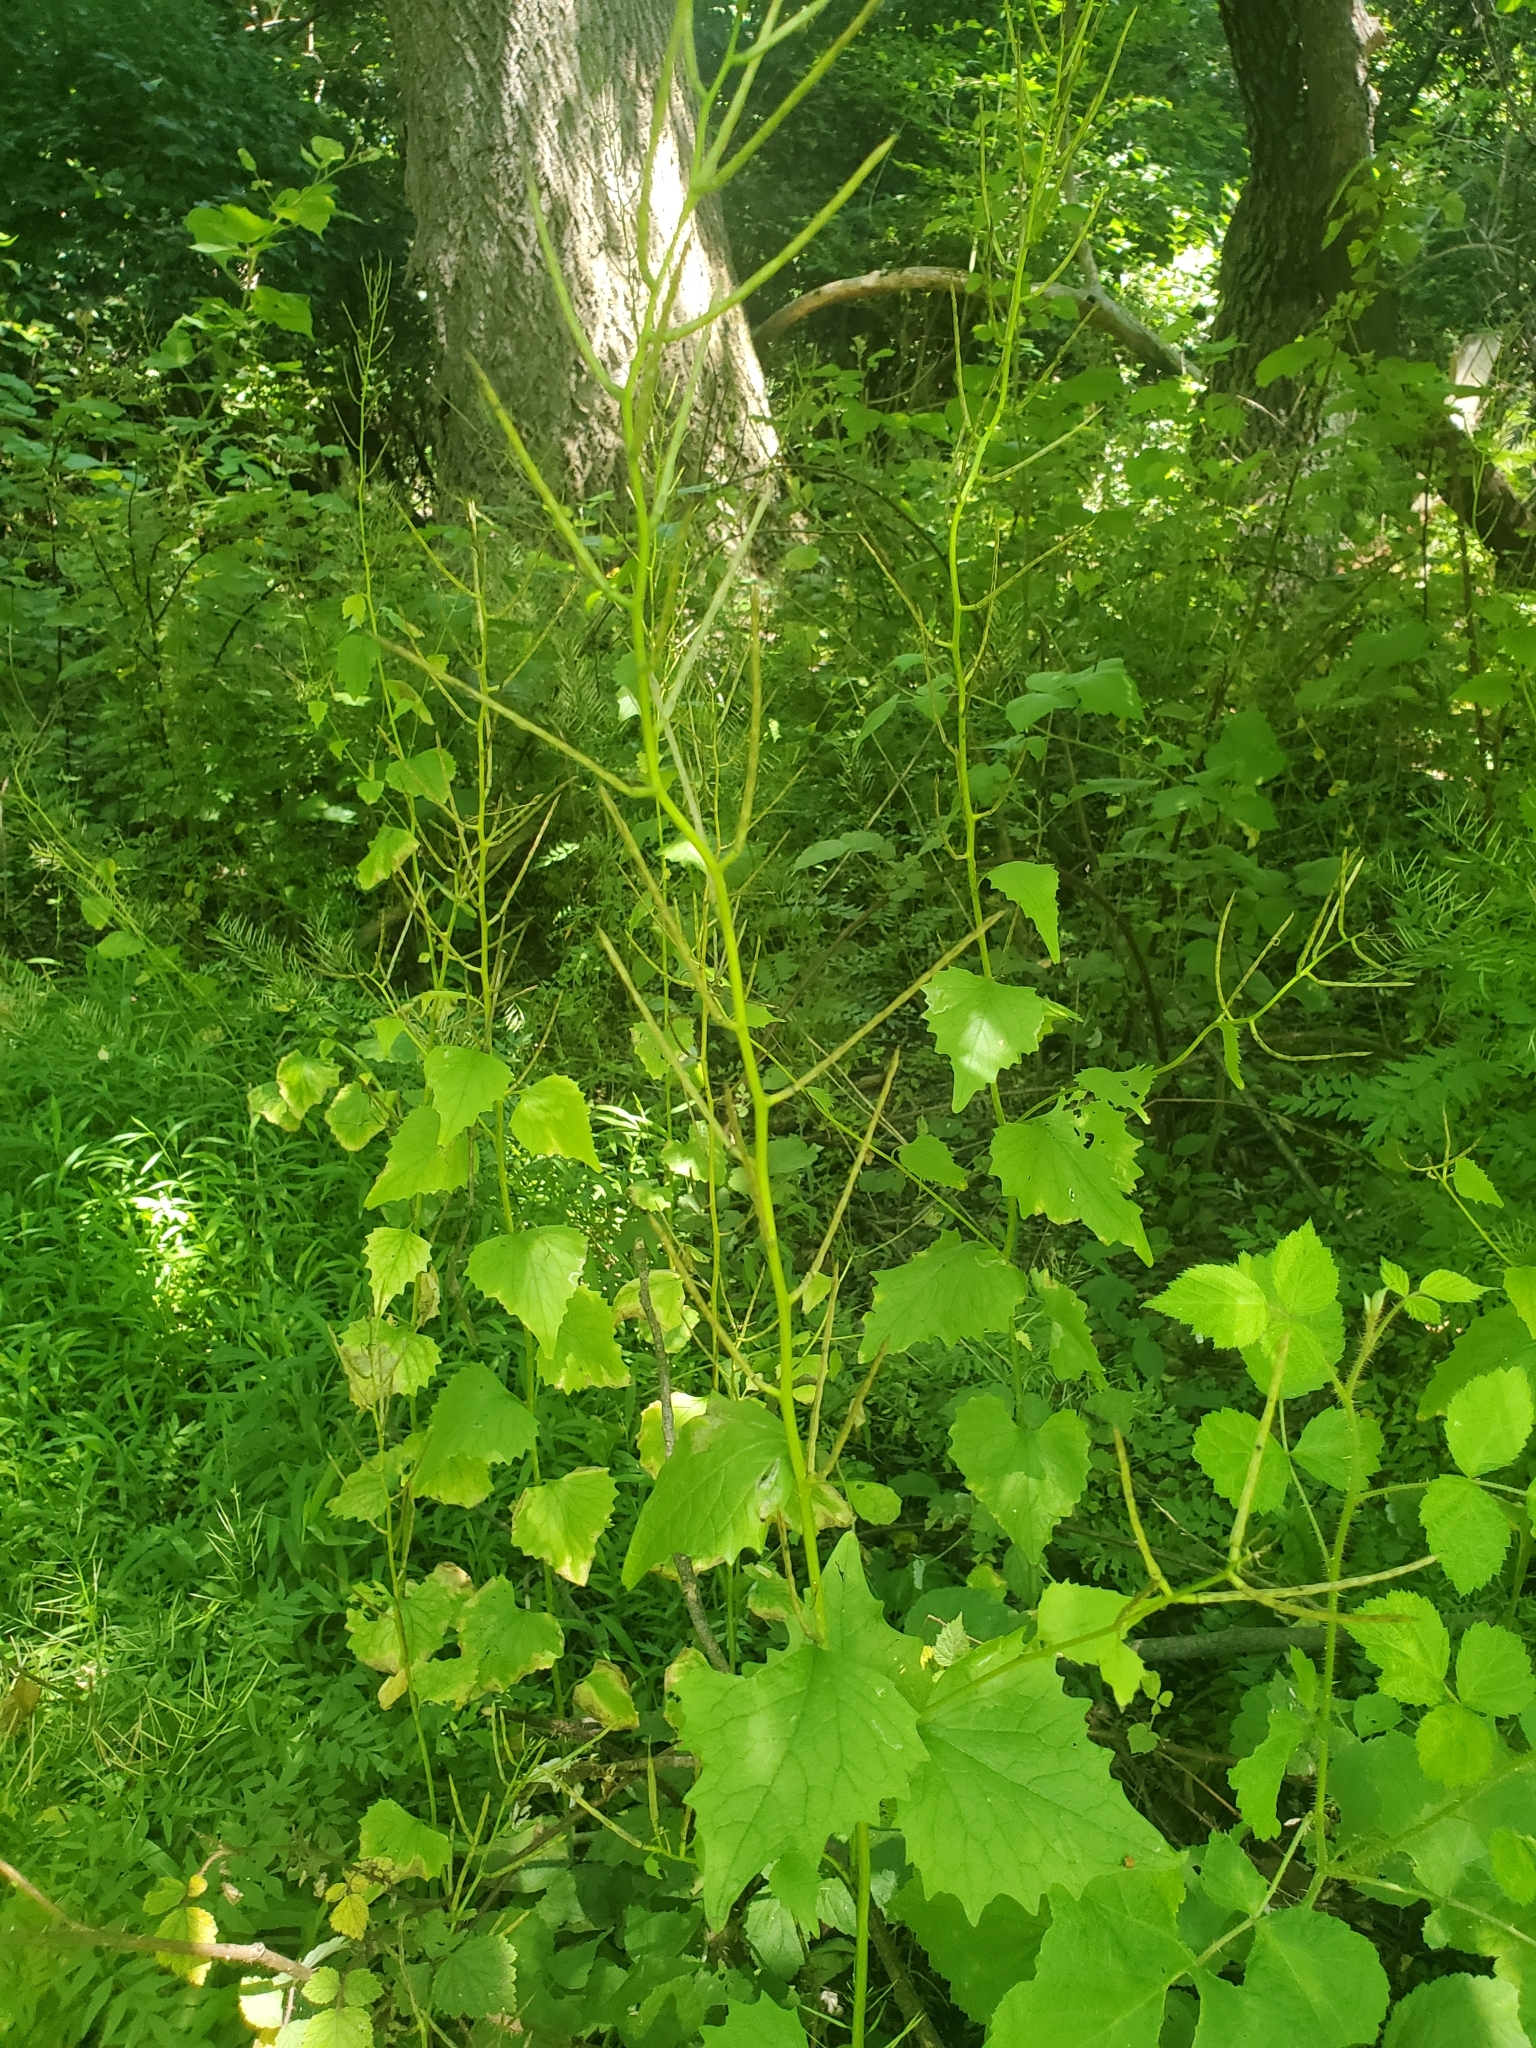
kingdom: Plantae
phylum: Tracheophyta
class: Magnoliopsida
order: Brassicales
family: Brassicaceae
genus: Alliaria
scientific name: Alliaria petiolata
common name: Garlic mustard
